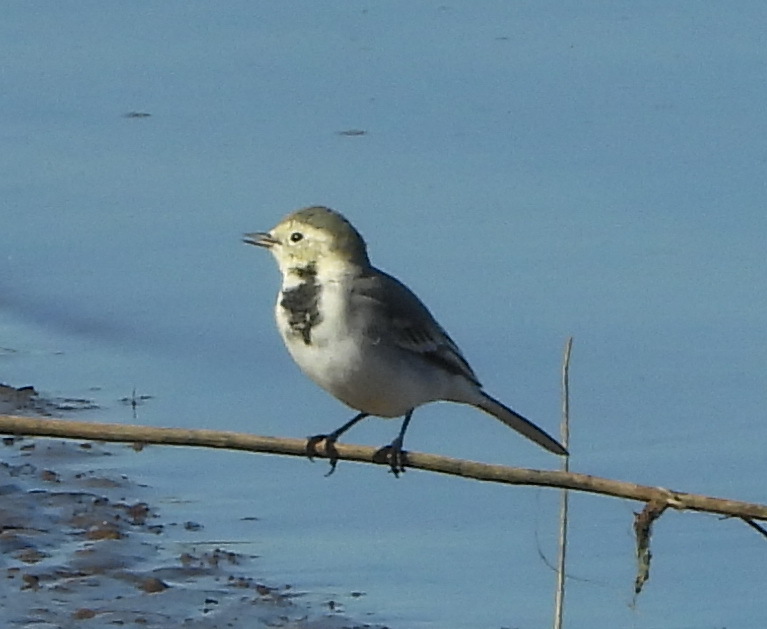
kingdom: Animalia
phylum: Chordata
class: Aves
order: Passeriformes
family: Motacillidae
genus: Motacilla
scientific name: Motacilla alba
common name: White wagtail
